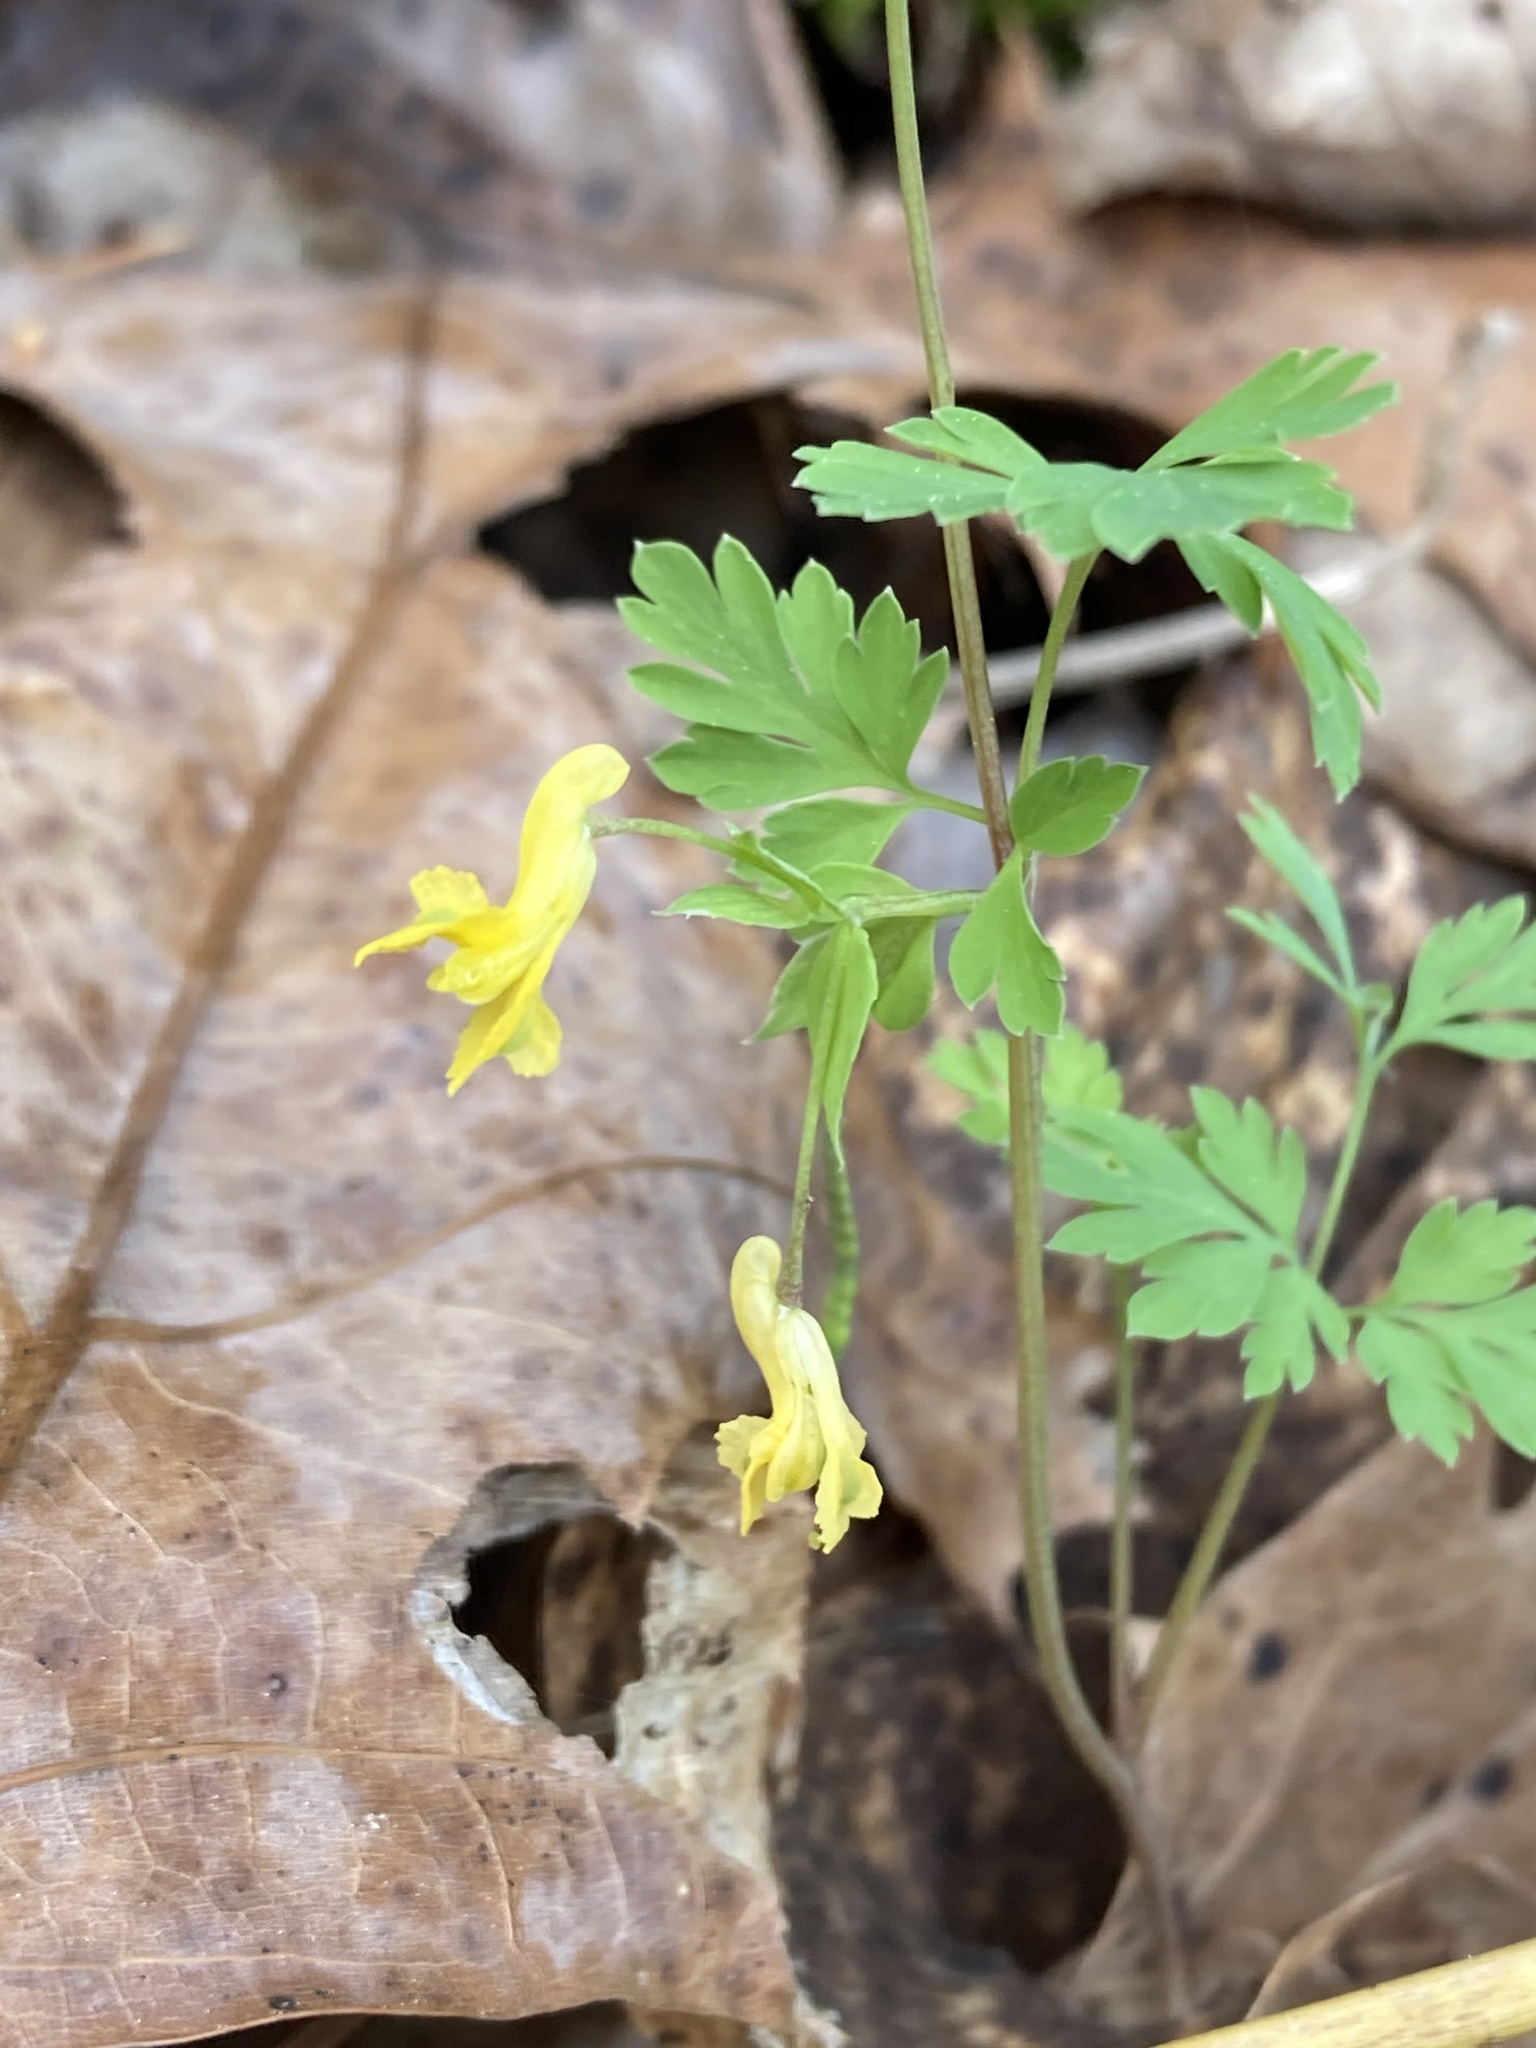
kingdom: Plantae
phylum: Tracheophyta
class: Magnoliopsida
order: Ranunculales
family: Papaveraceae
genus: Corydalis
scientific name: Corydalis flavula
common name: Yellow corydalis
